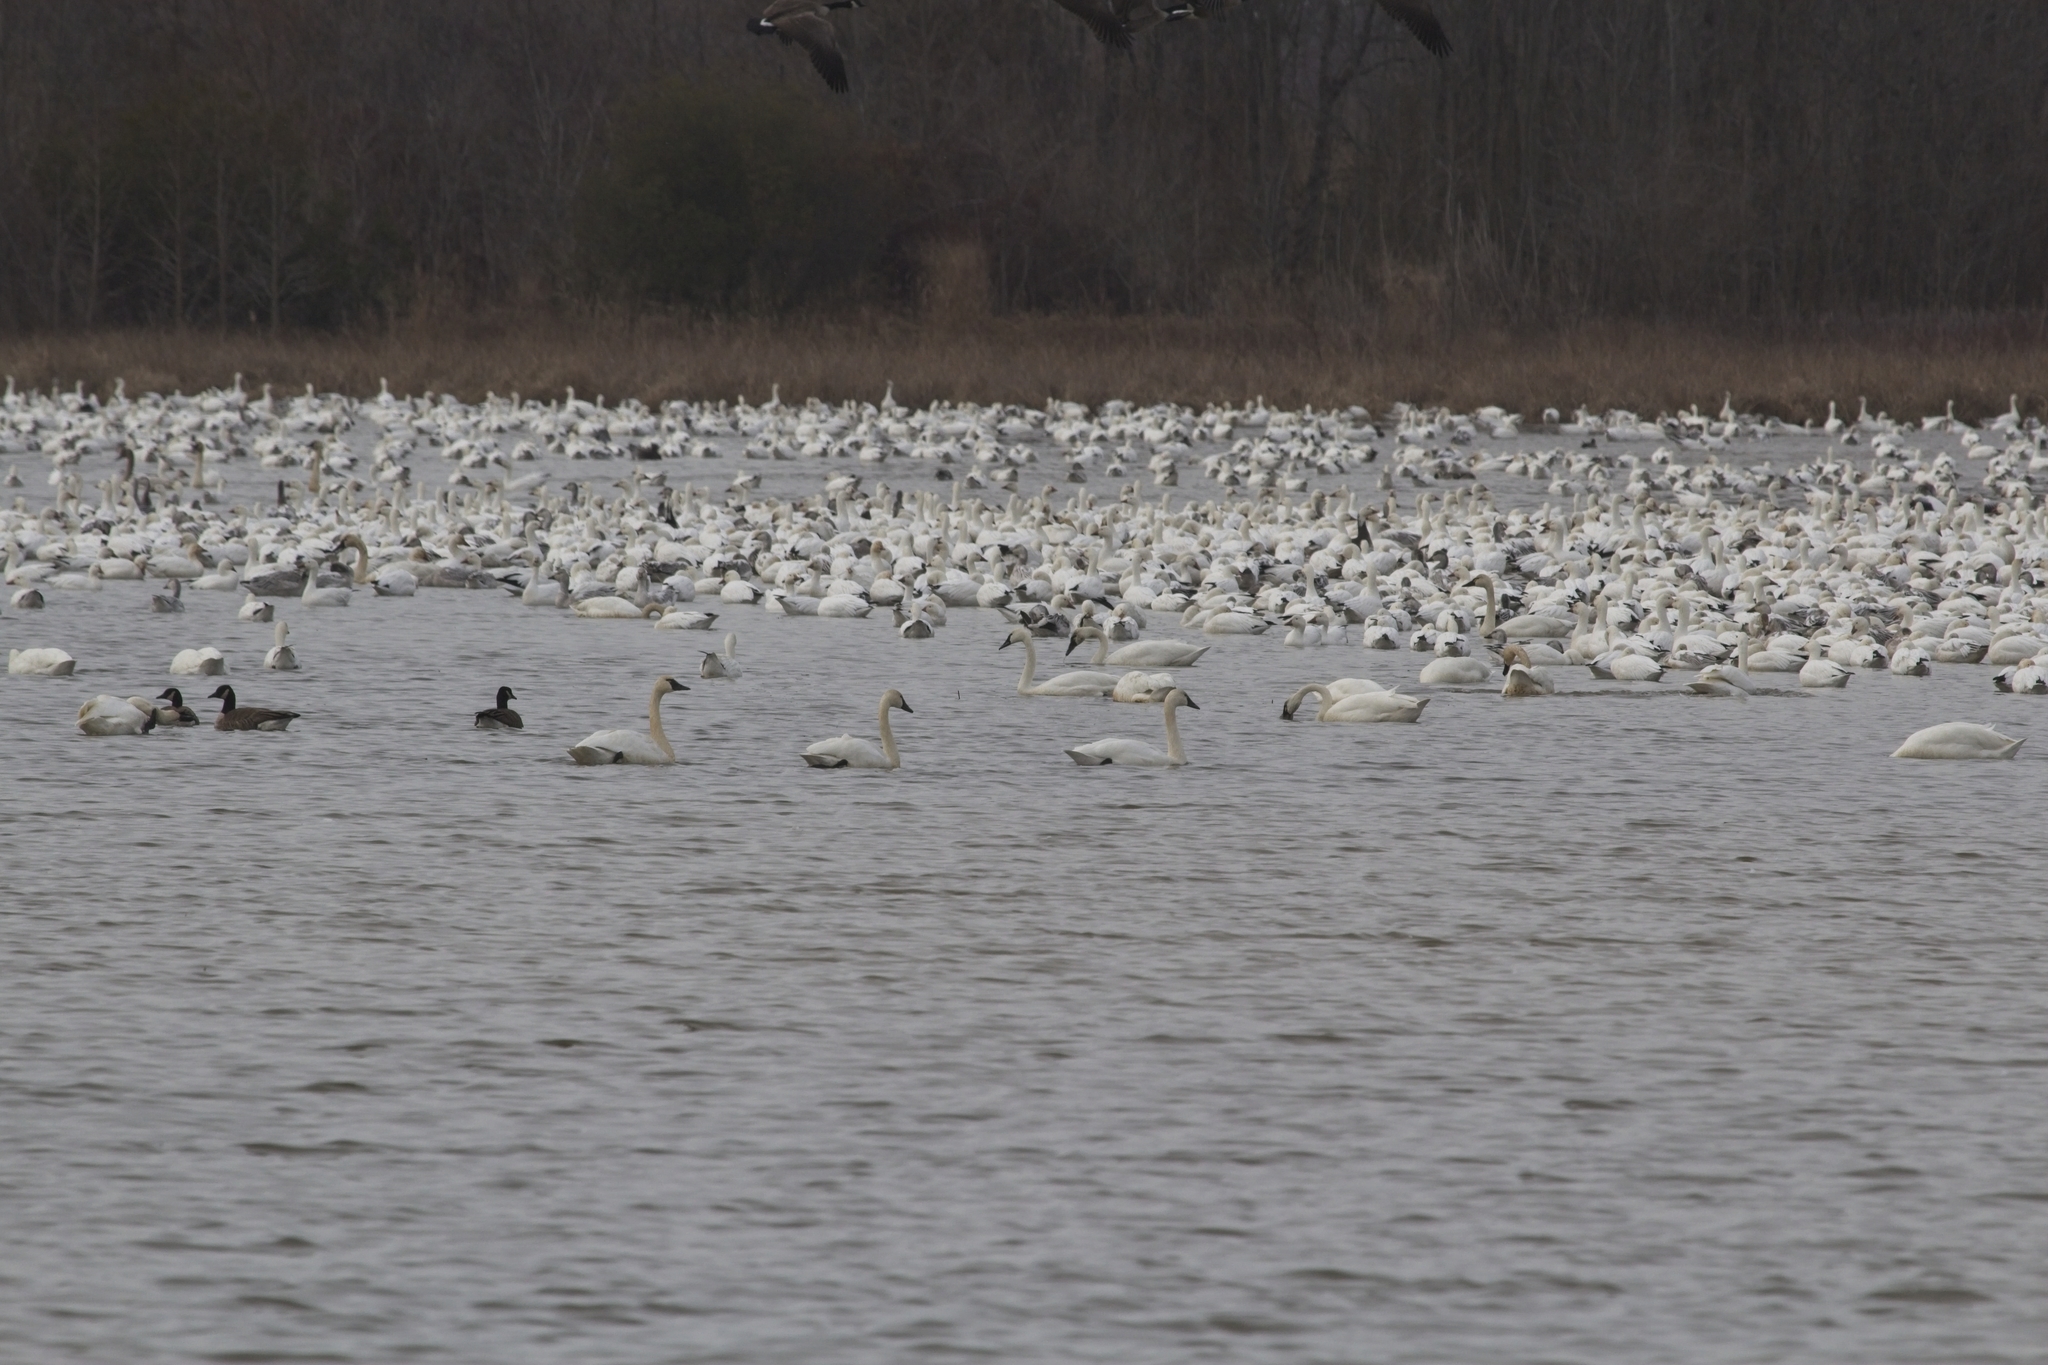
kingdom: Animalia
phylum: Chordata
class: Aves
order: Anseriformes
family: Anatidae
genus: Cygnus
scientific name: Cygnus columbianus
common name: Tundra swan
